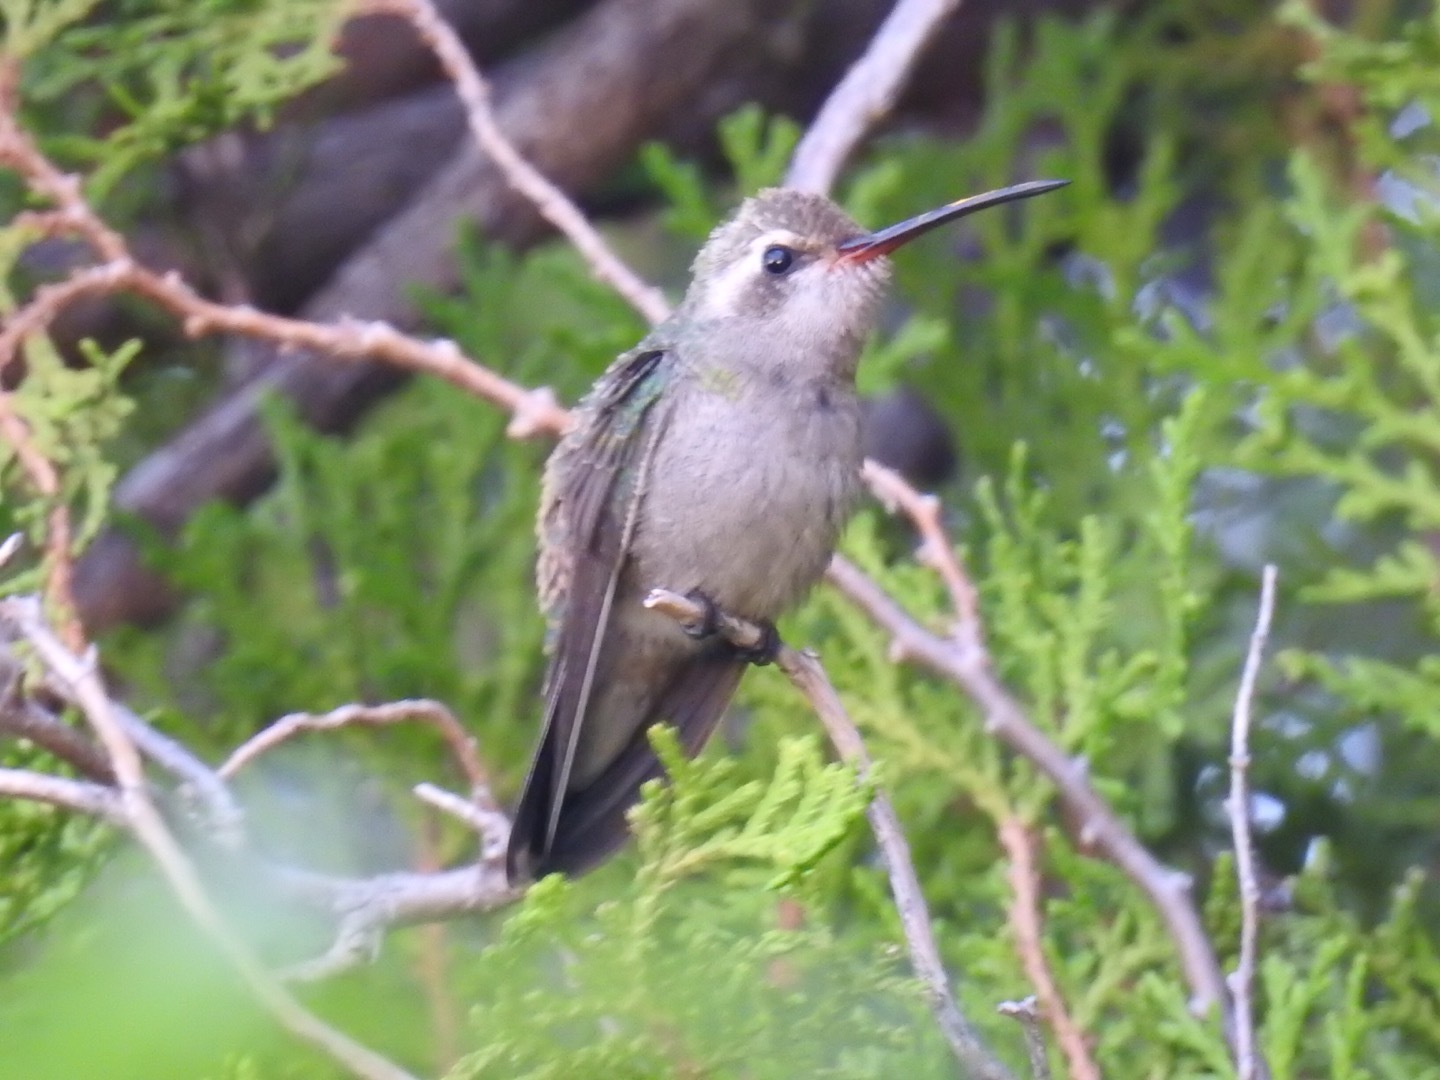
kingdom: Animalia
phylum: Chordata
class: Aves
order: Apodiformes
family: Trochilidae
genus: Cynanthus
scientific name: Cynanthus latirostris
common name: Broad-billed hummingbird
